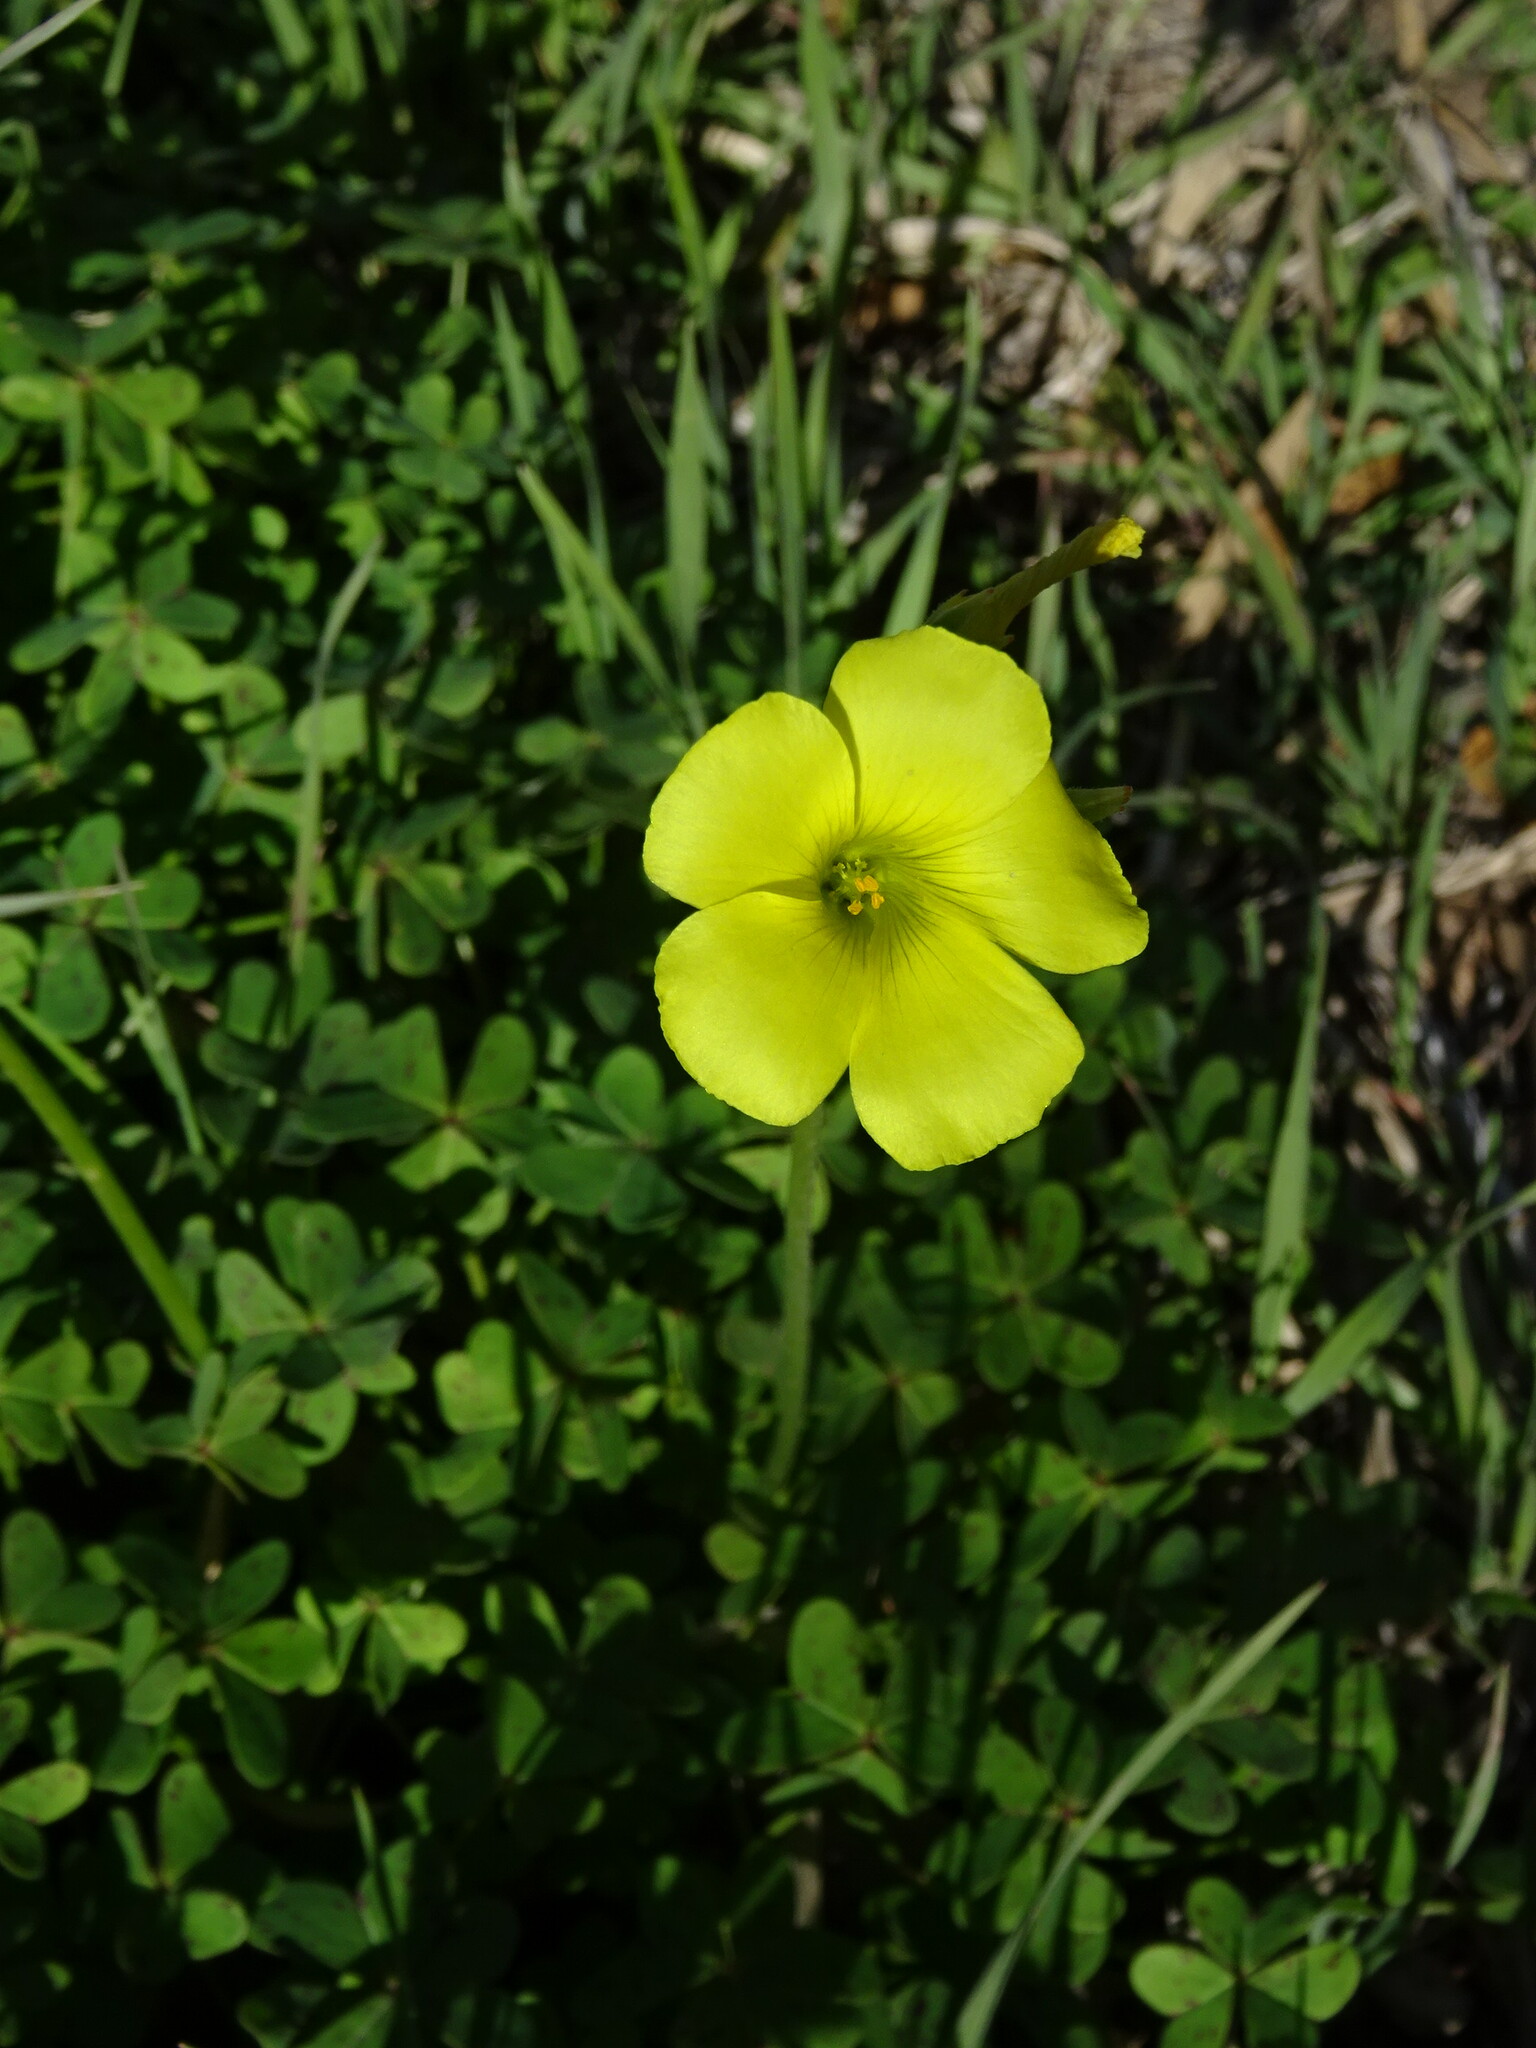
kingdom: Plantae
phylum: Tracheophyta
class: Magnoliopsida
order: Oxalidales
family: Oxalidaceae
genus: Oxalis
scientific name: Oxalis pes-caprae
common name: Bermuda-buttercup
